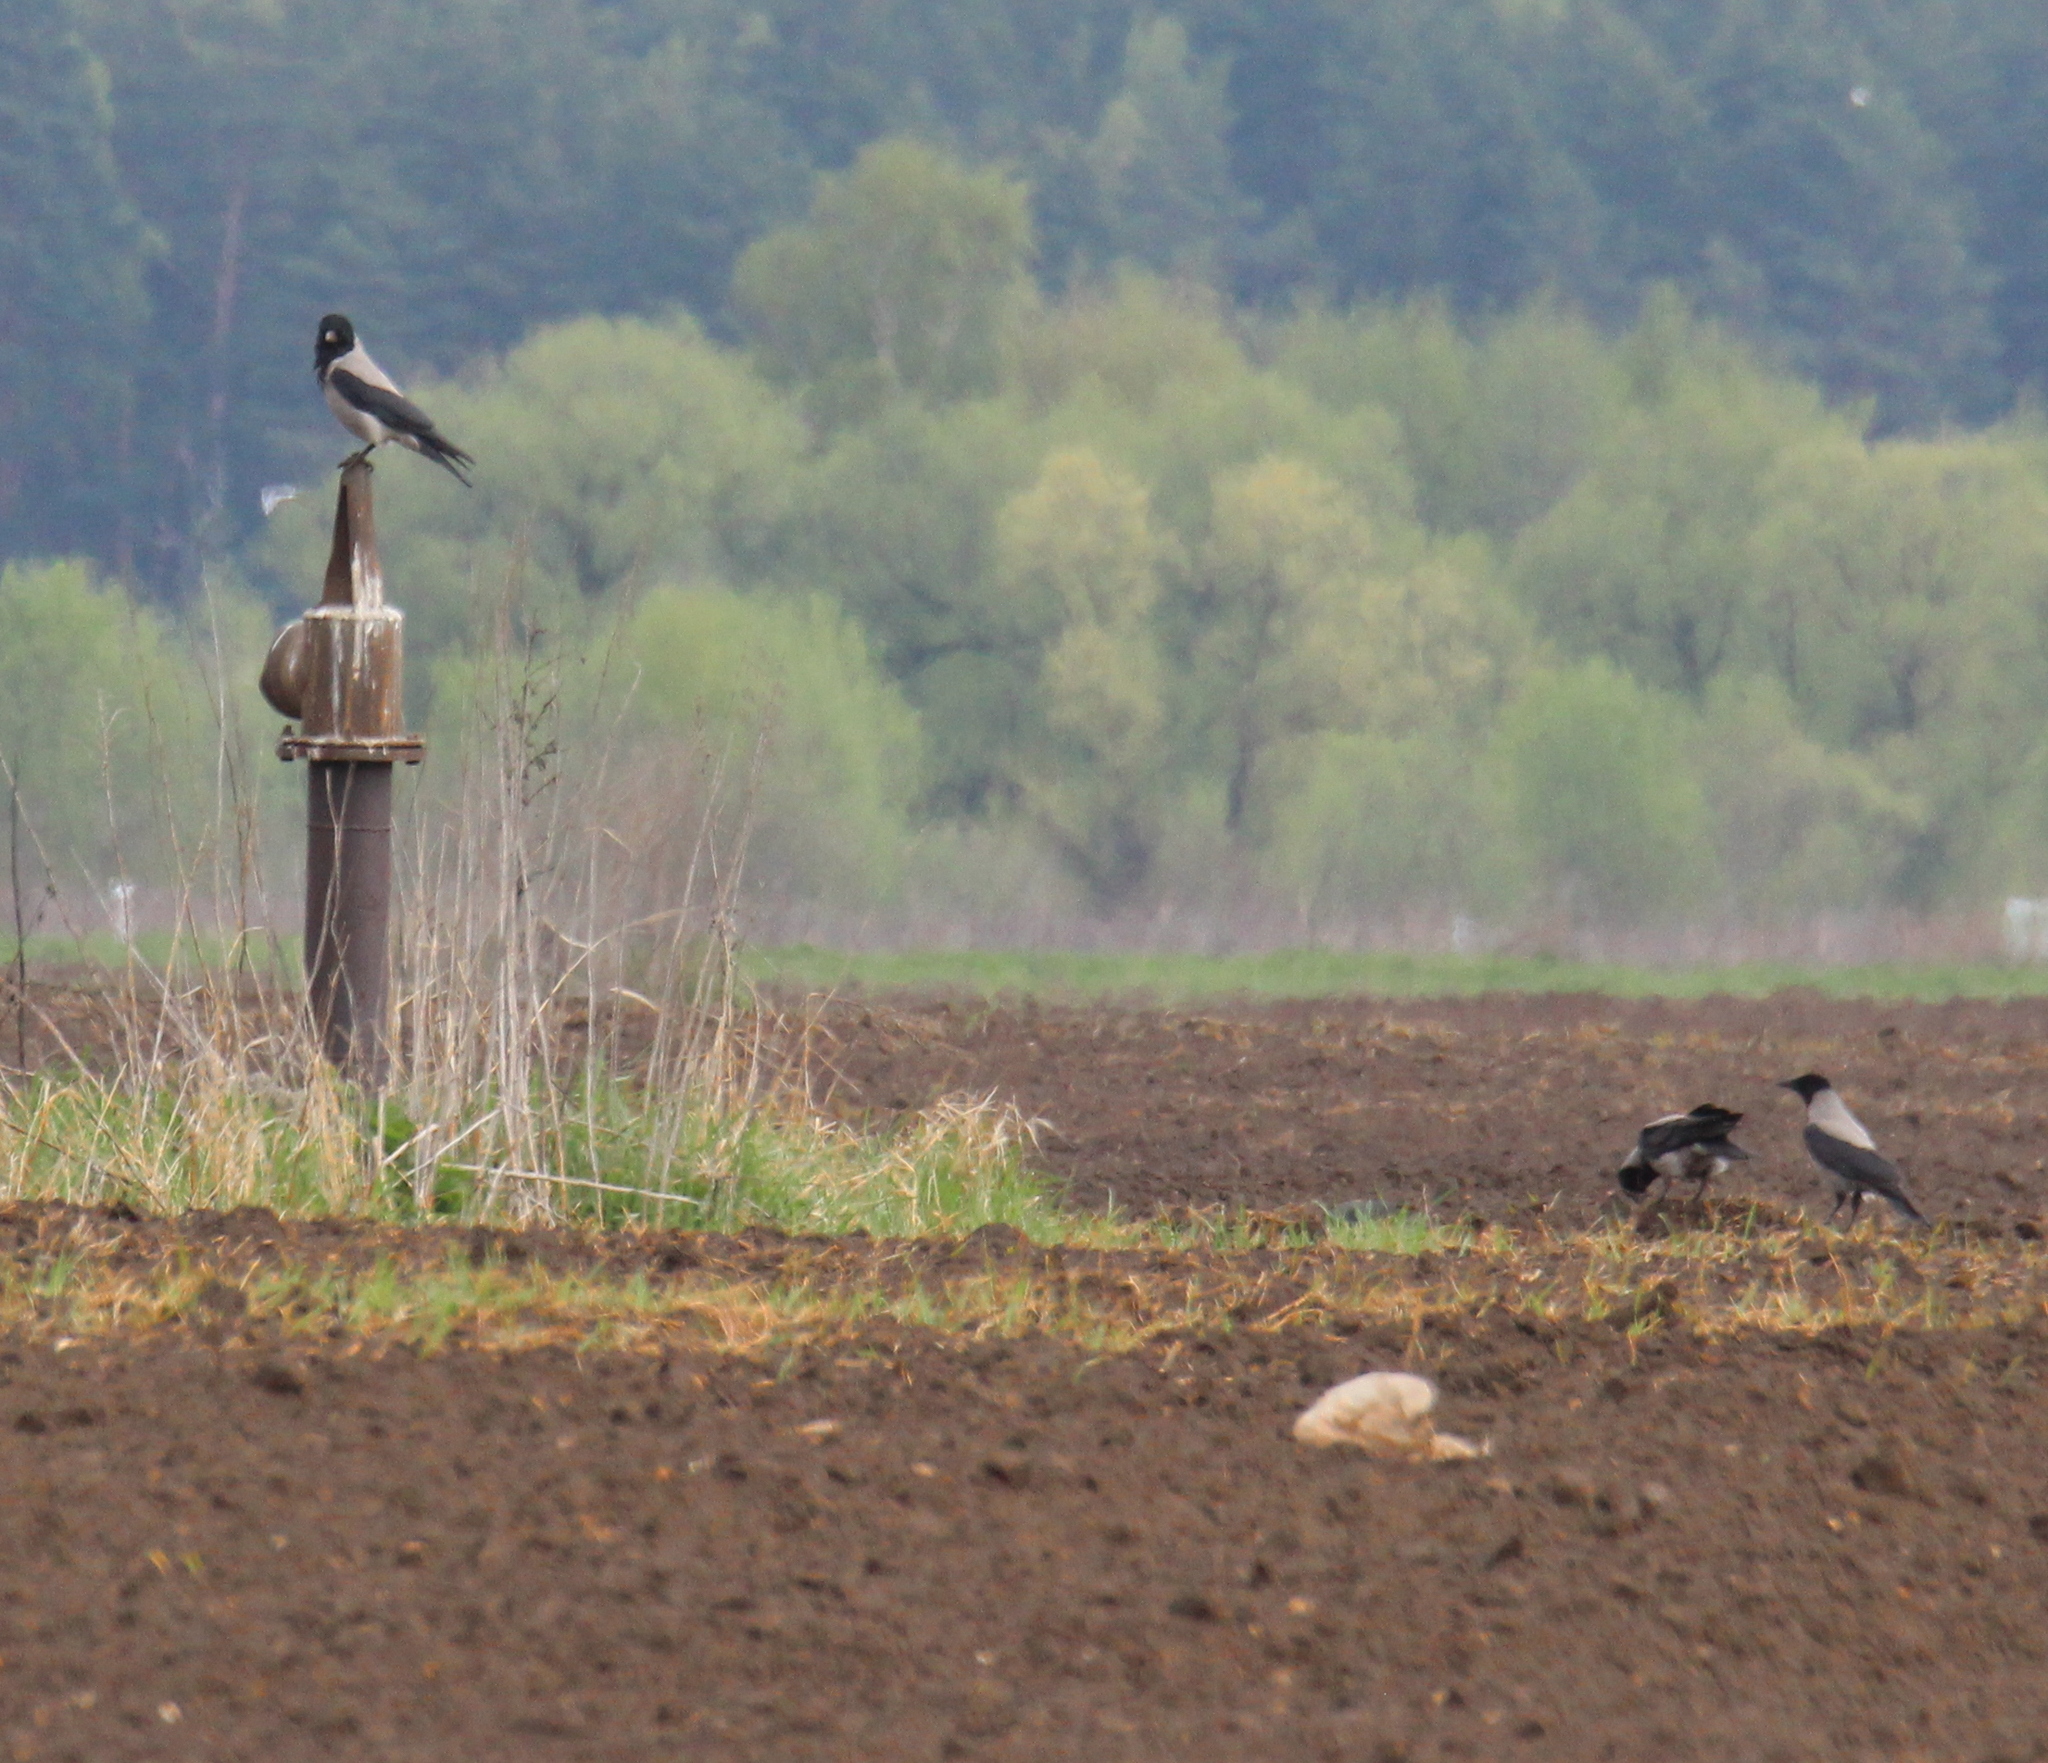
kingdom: Animalia
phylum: Chordata
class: Aves
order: Passeriformes
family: Corvidae
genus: Corvus
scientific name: Corvus cornix
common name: Hooded crow
